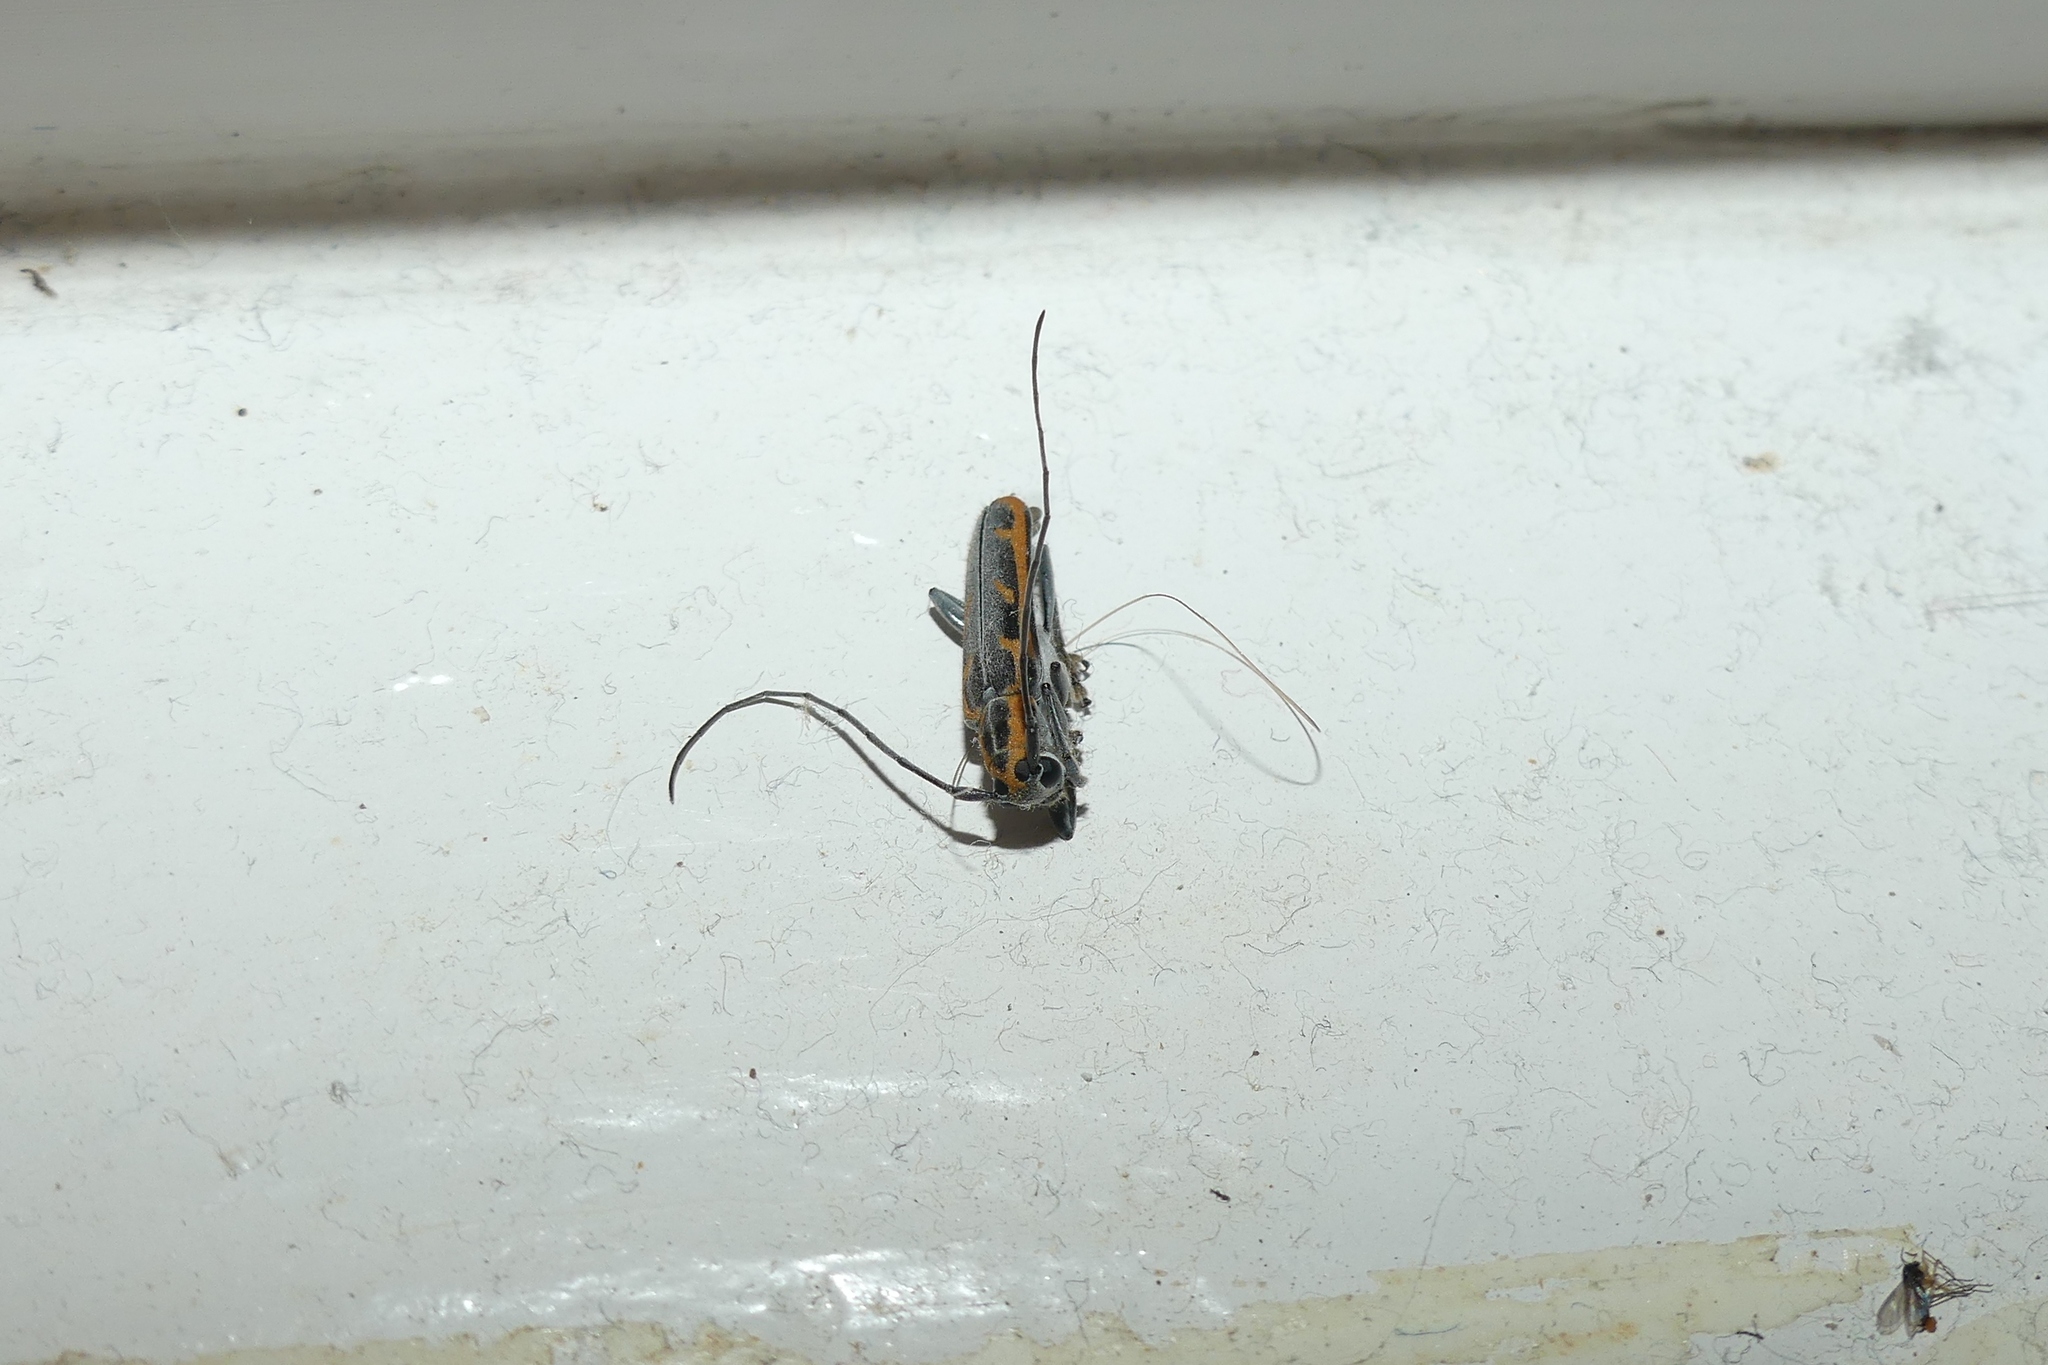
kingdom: Animalia
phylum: Arthropoda
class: Insecta
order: Coleoptera
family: Cerambycidae
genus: Saperda
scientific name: Saperda imitans
